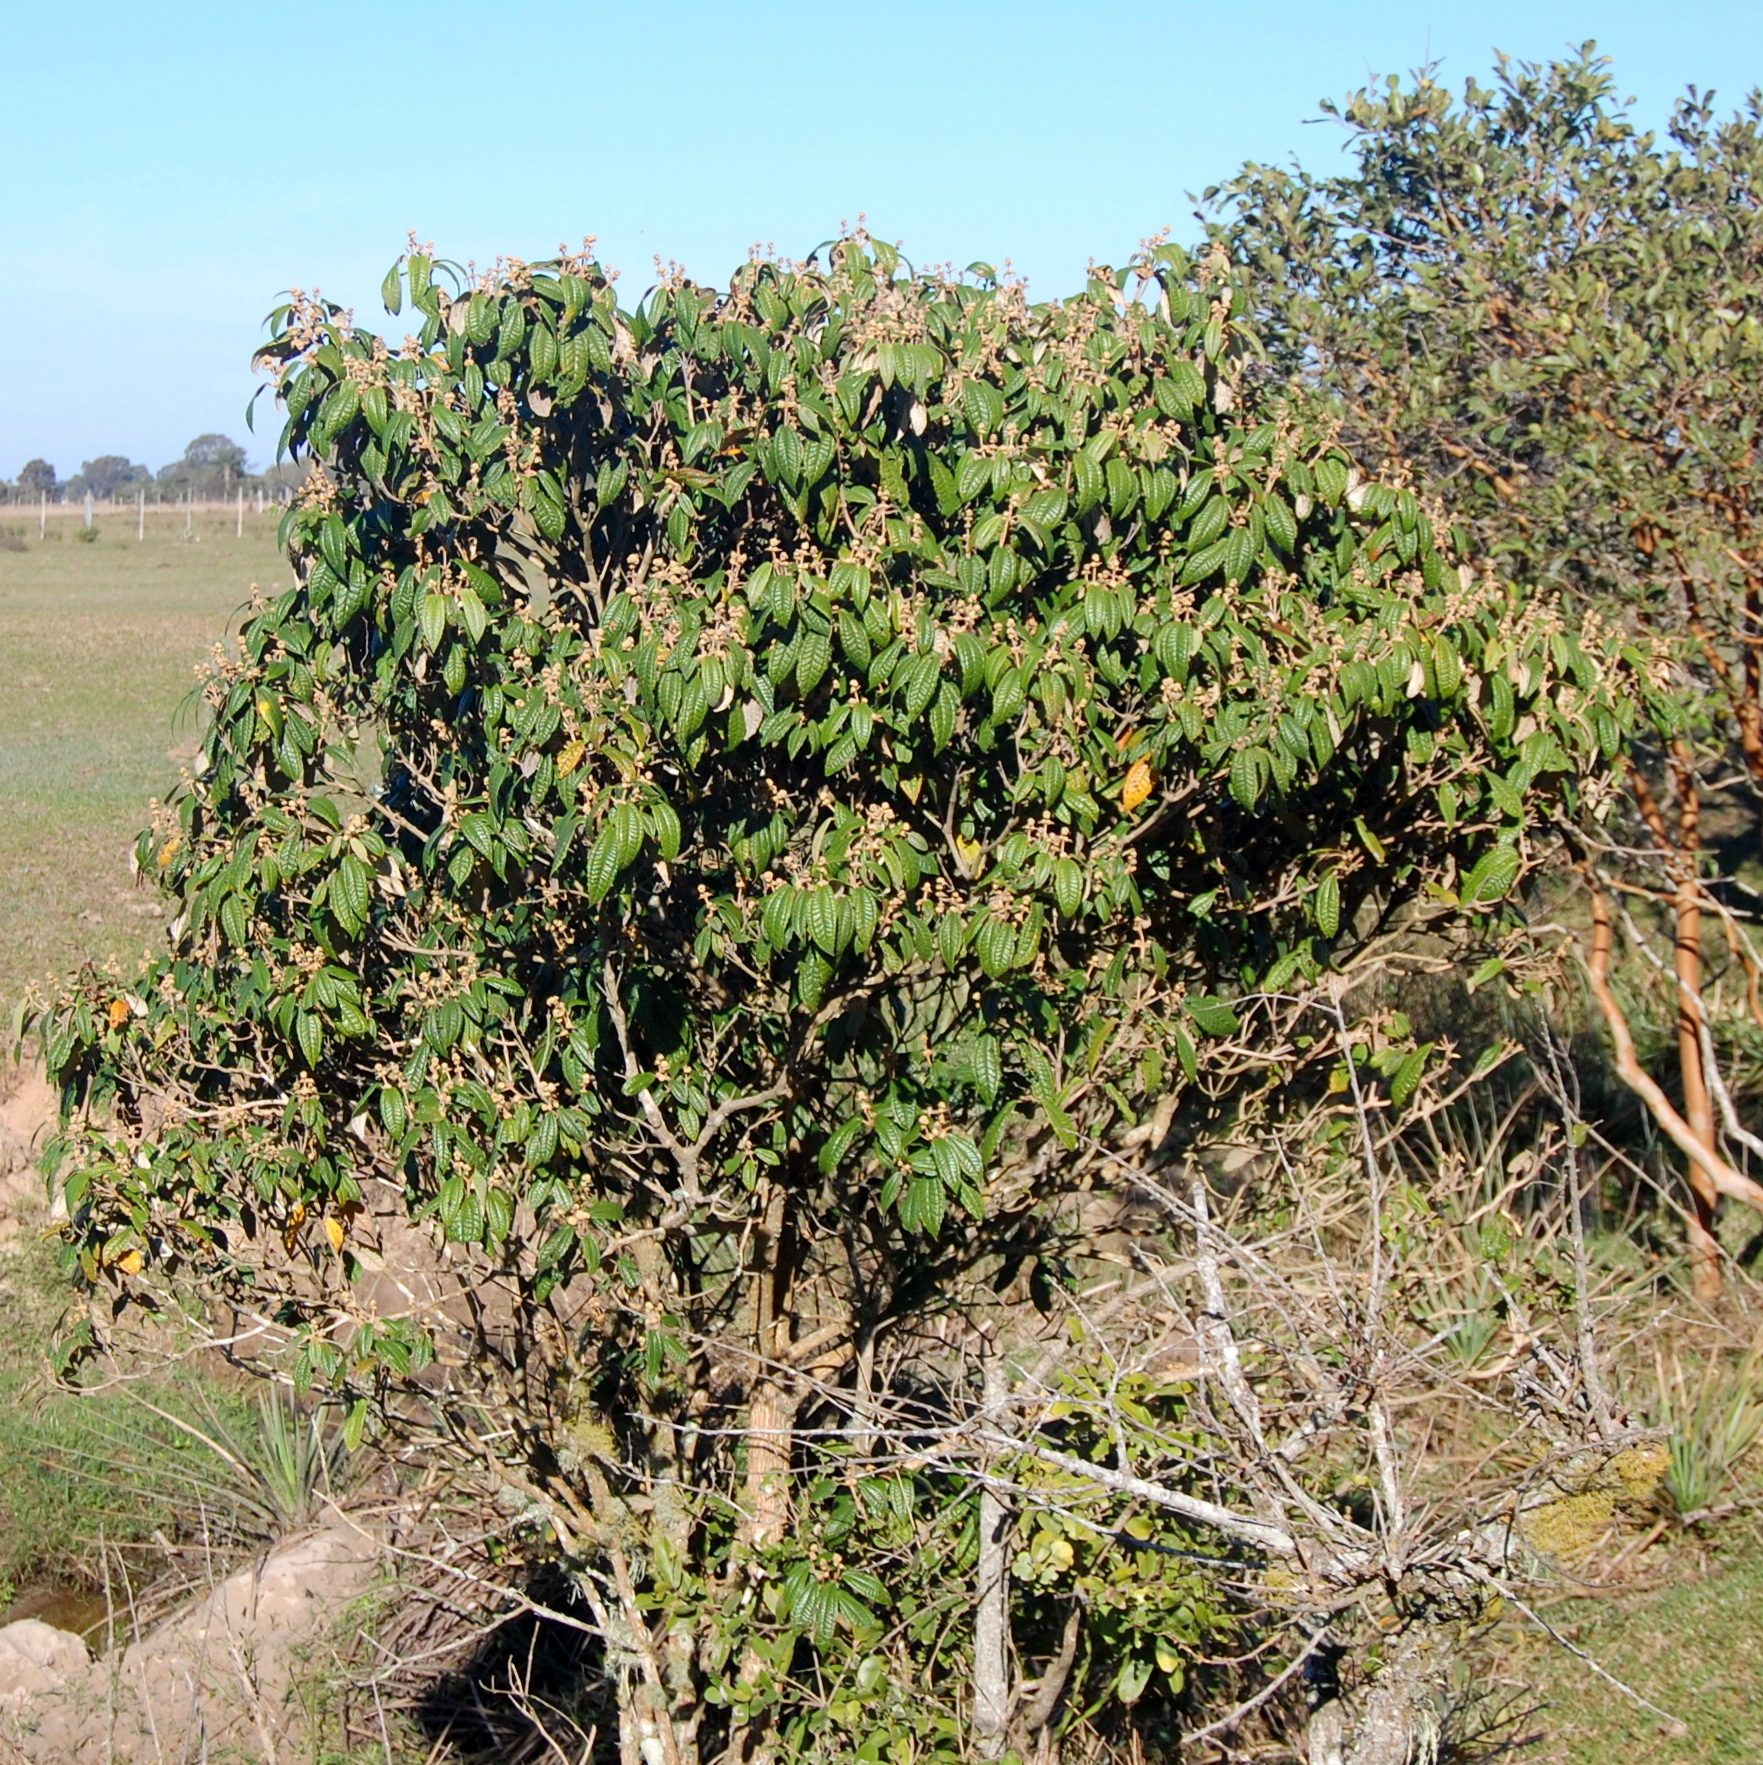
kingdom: Plantae
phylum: Tracheophyta
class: Magnoliopsida
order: Myrtales
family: Melastomataceae
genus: Miconia
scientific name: Miconia hyemalis
